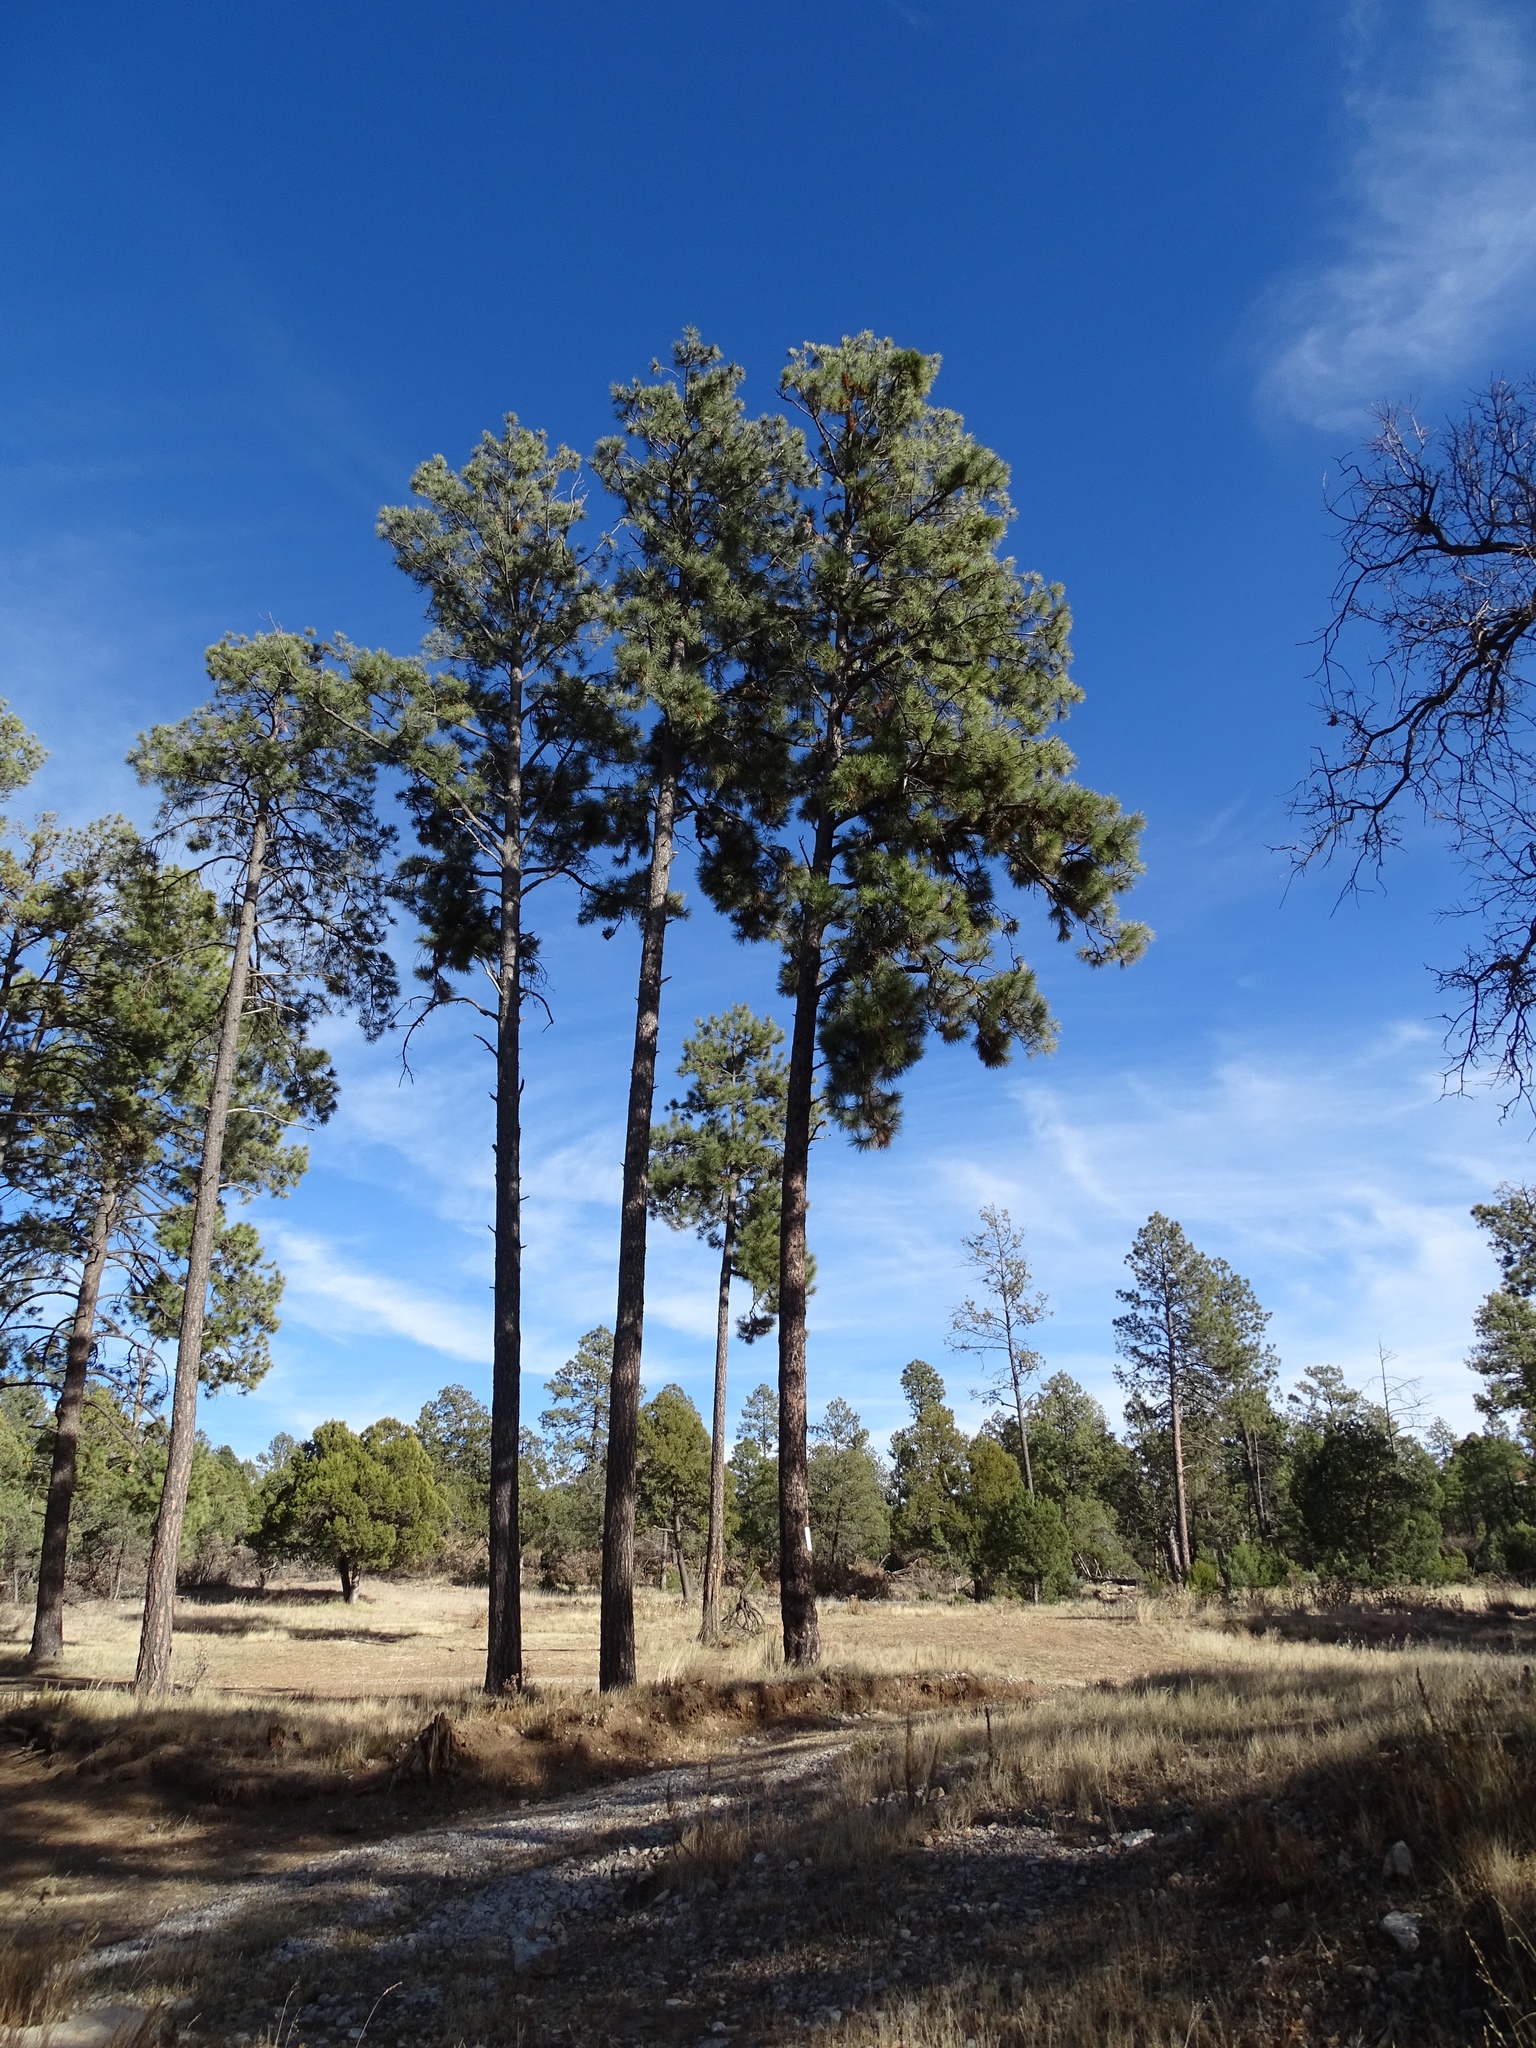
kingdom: Plantae
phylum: Tracheophyta
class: Pinopsida
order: Pinales
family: Pinaceae
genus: Pinus
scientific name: Pinus ponderosa
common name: Western yellow-pine
